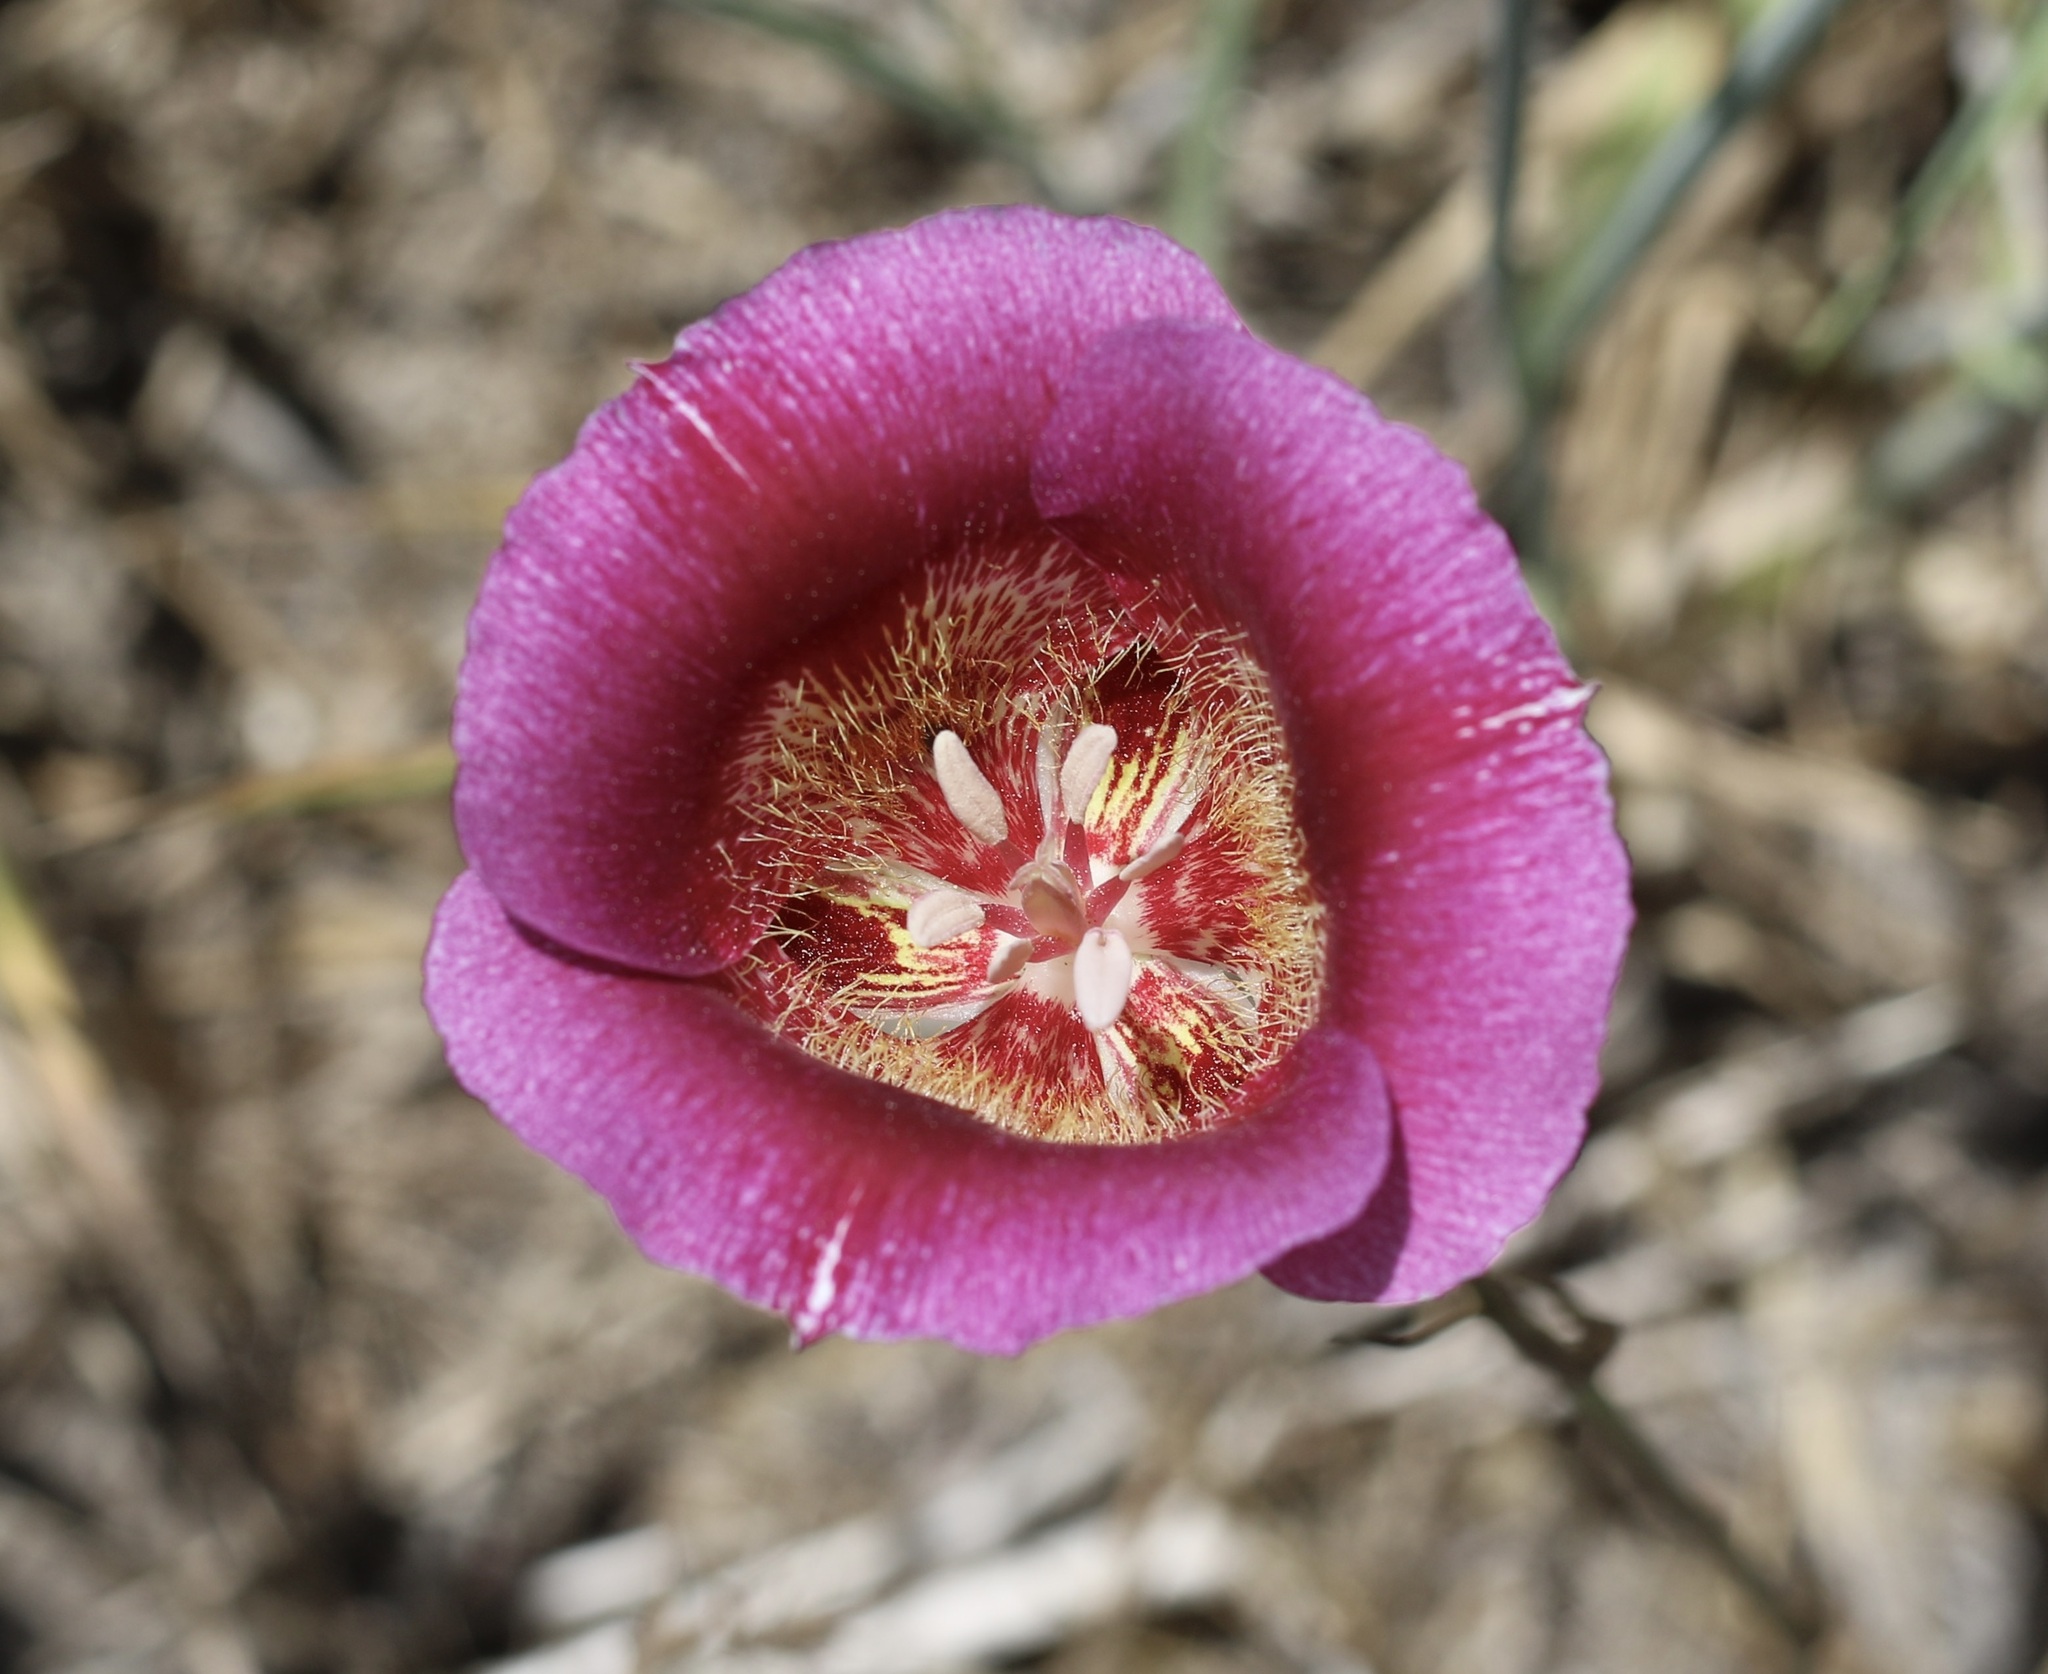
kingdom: Plantae
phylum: Tracheophyta
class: Liliopsida
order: Liliales
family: Liliaceae
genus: Calochortus
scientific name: Calochortus venustus
